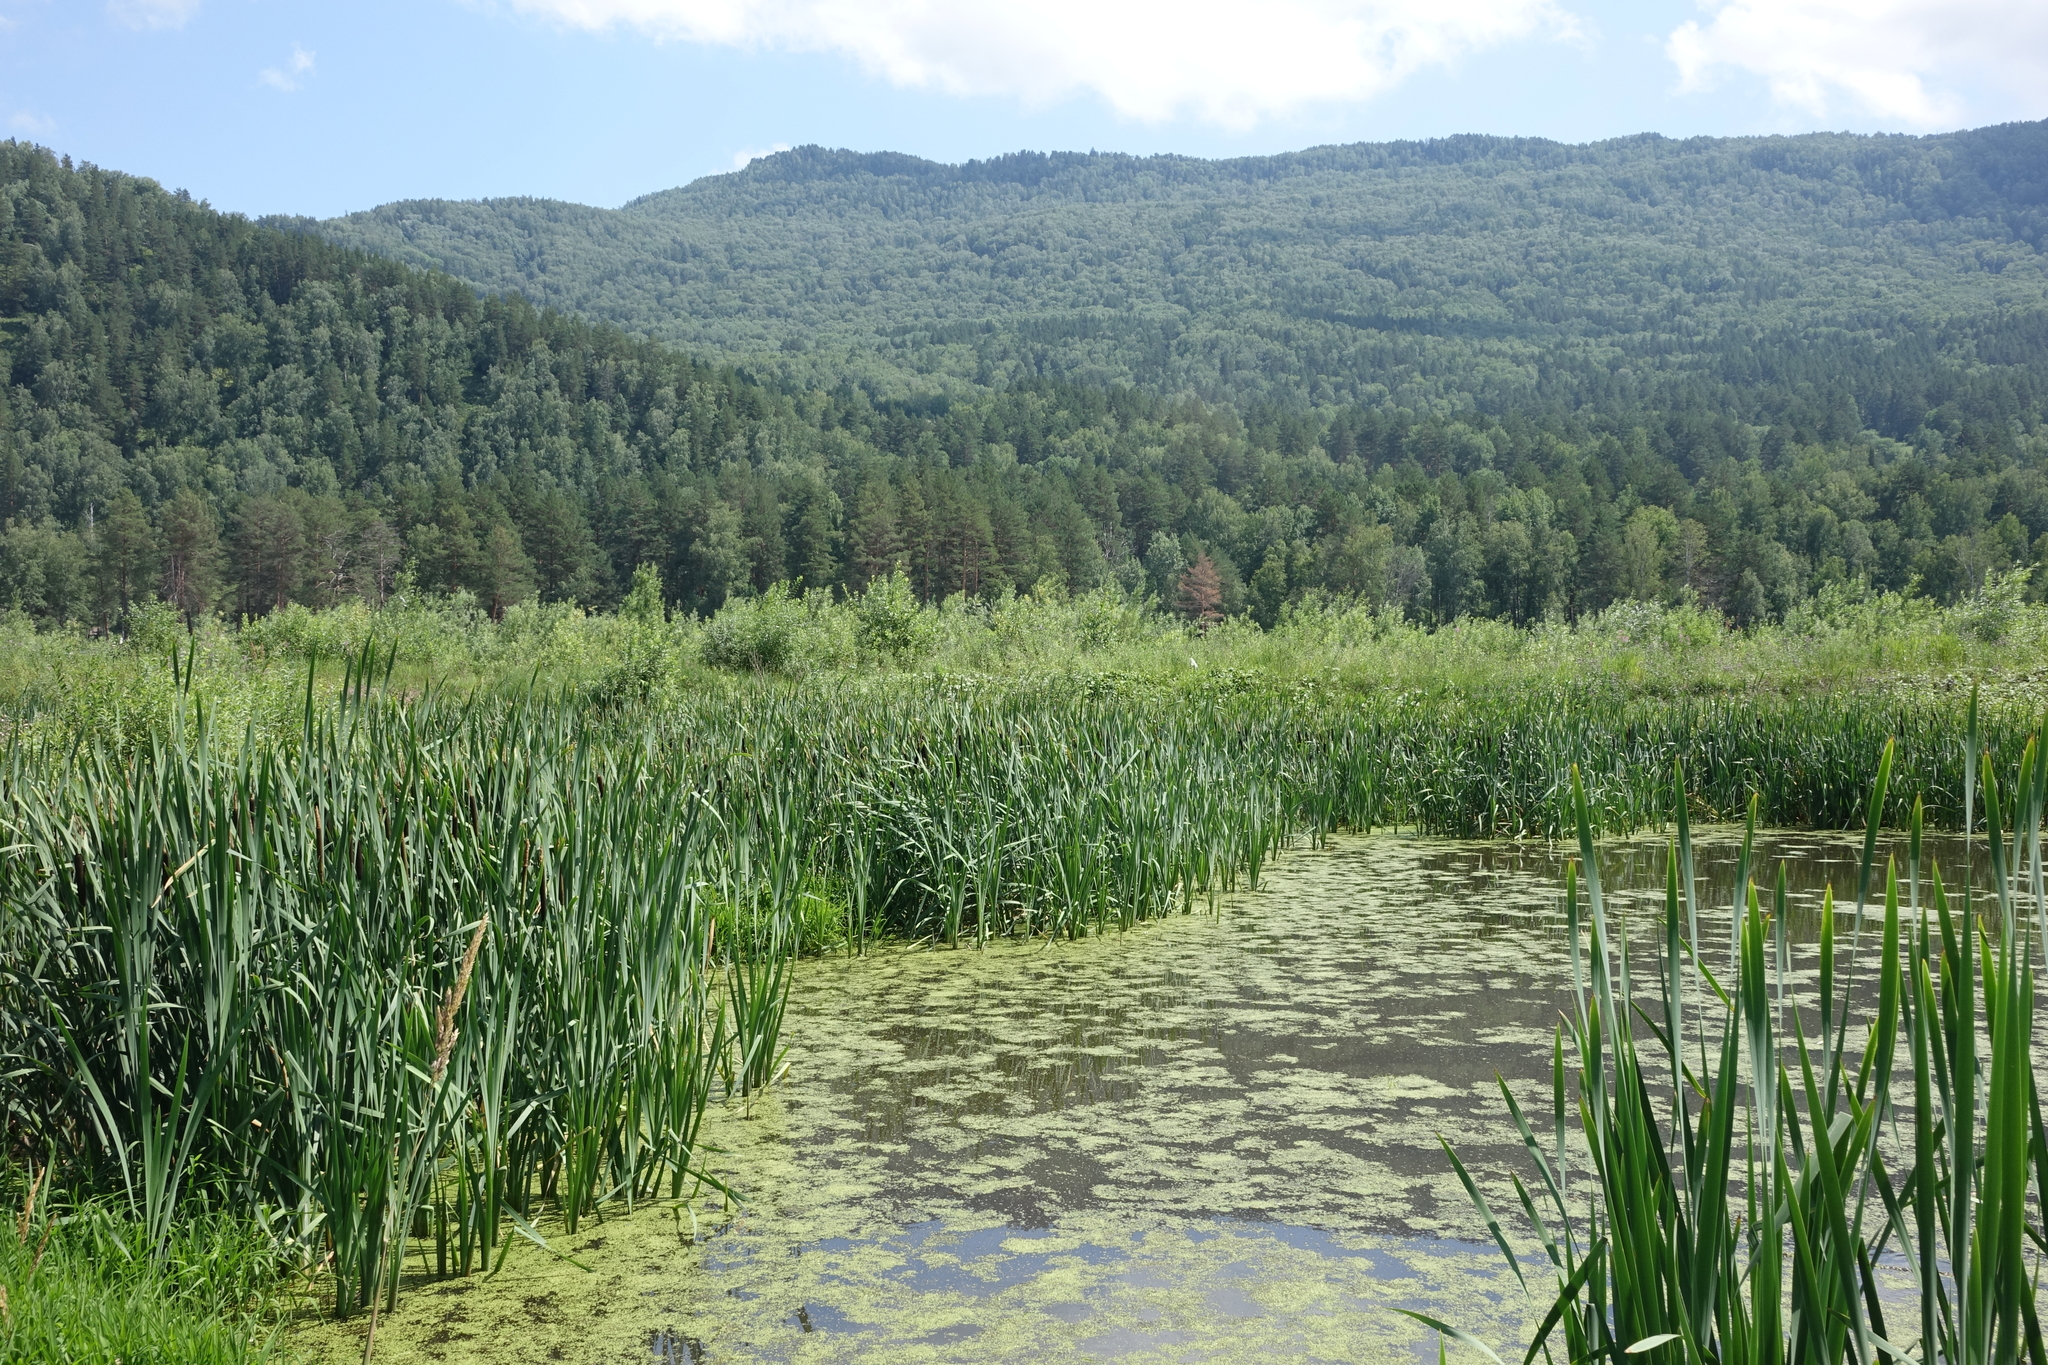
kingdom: Plantae
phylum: Tracheophyta
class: Liliopsida
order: Poales
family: Typhaceae
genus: Typha
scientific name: Typha latifolia
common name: Broadleaf cattail
